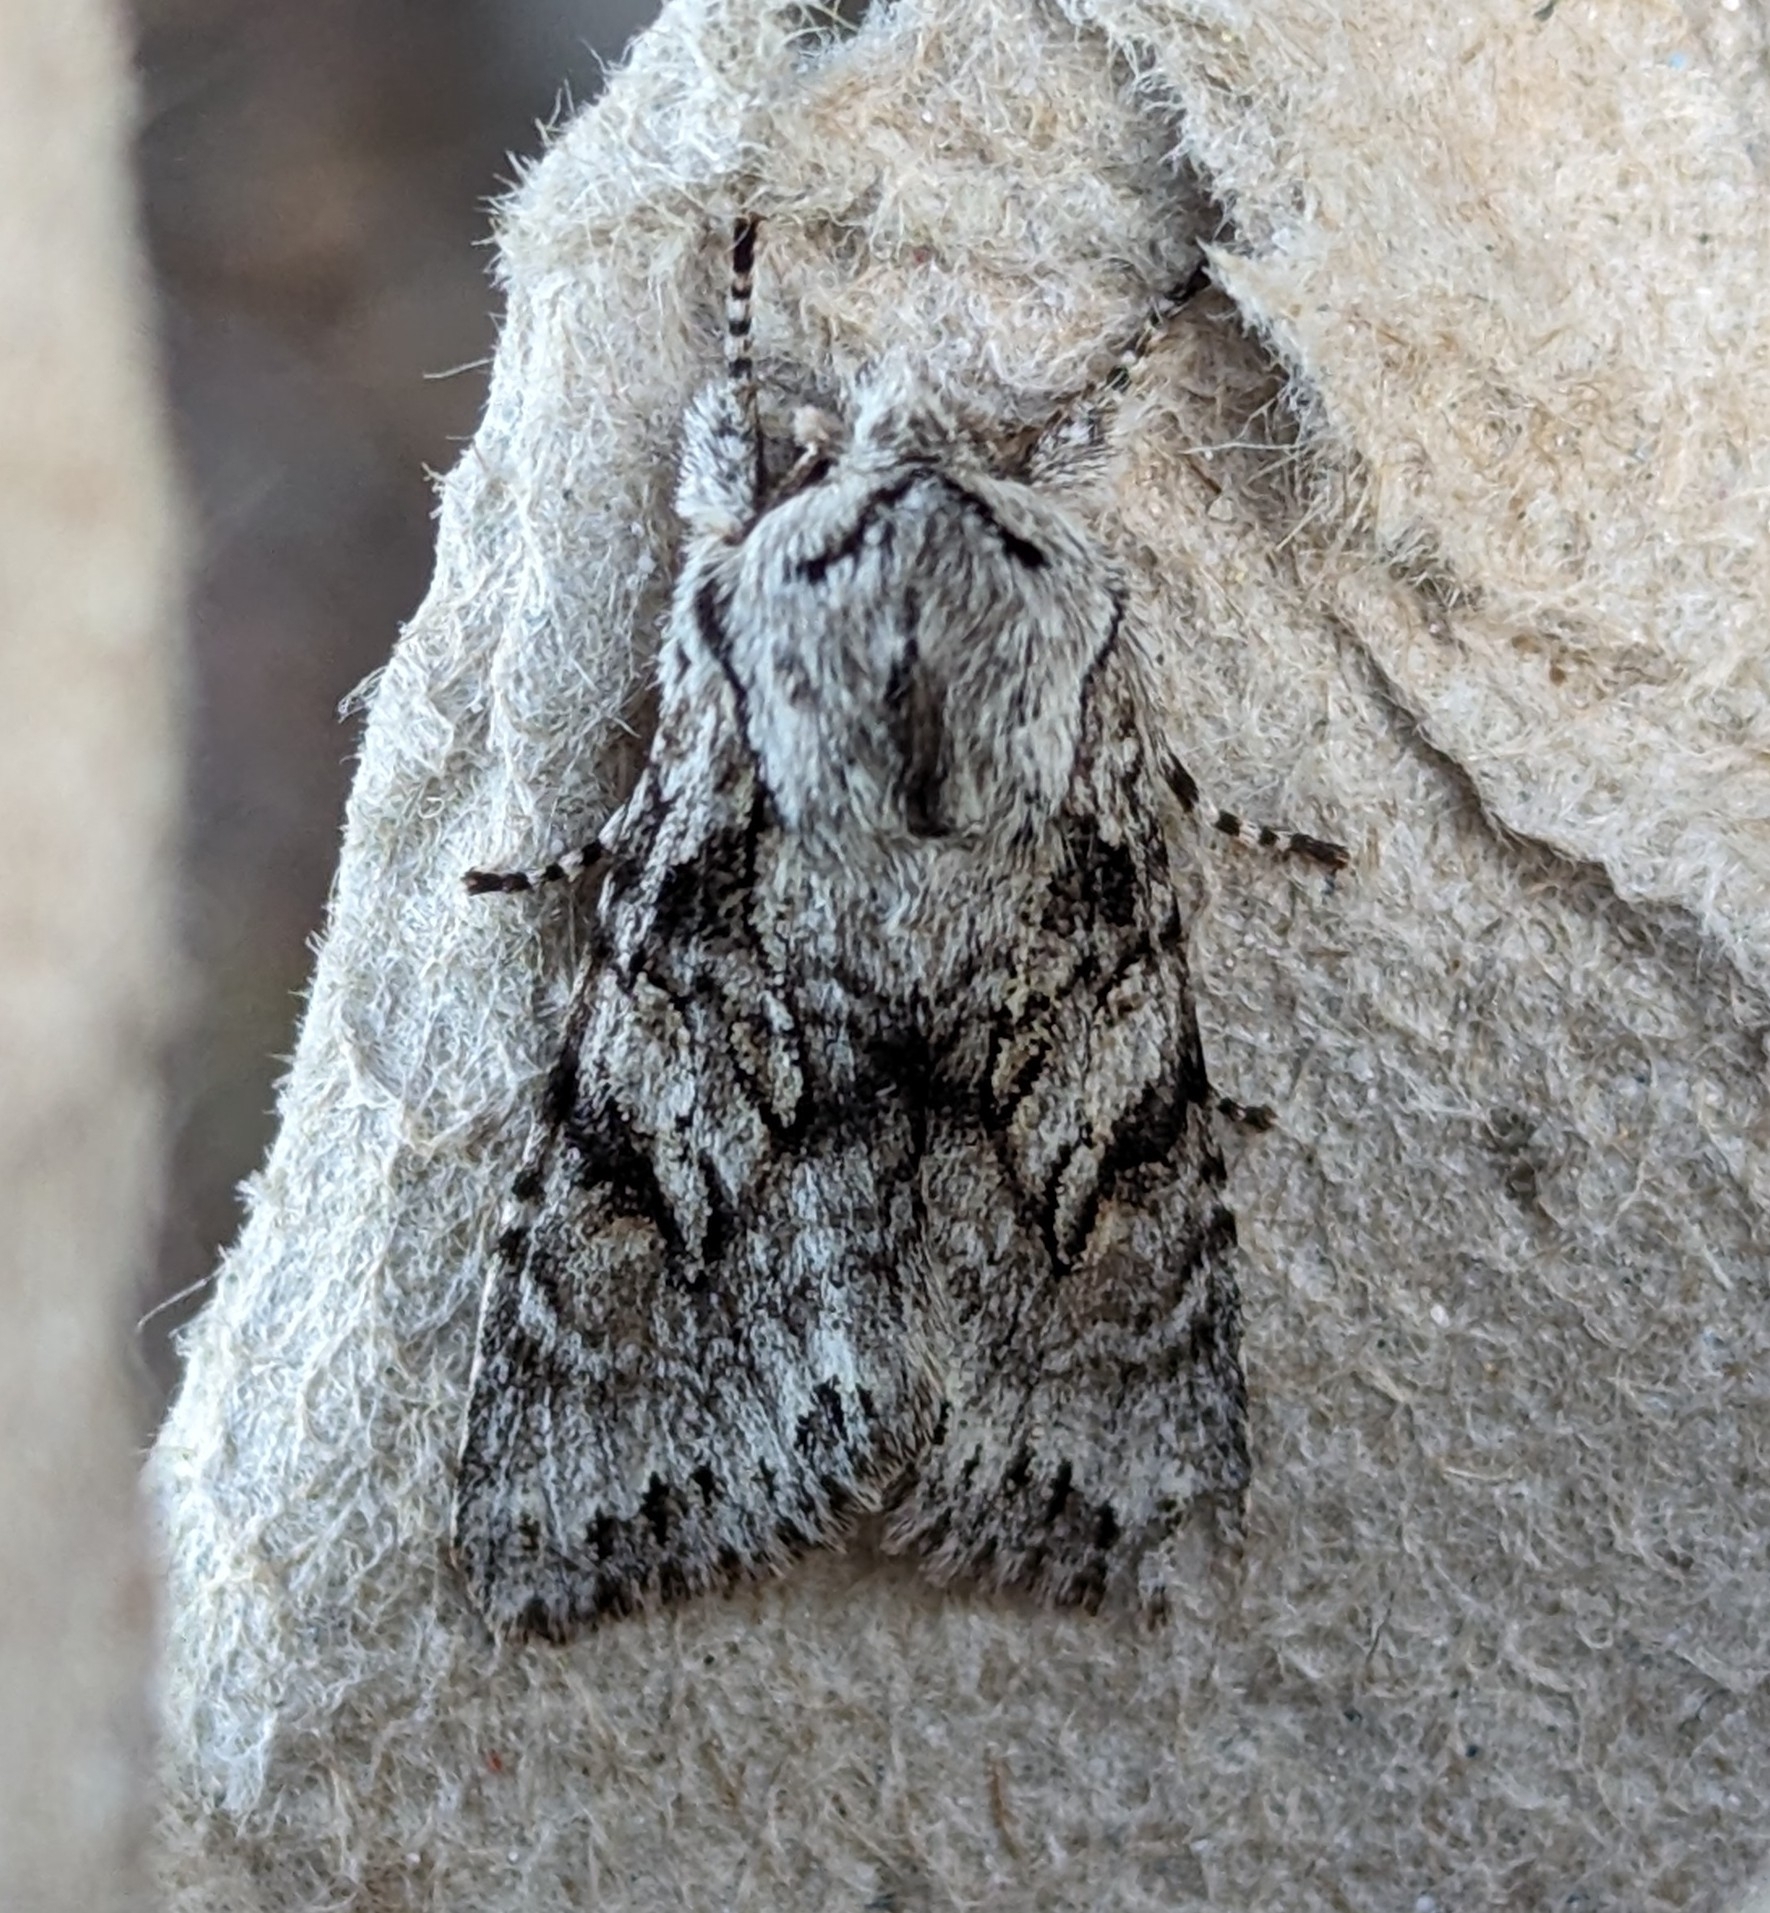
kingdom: Animalia
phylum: Arthropoda
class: Insecta
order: Lepidoptera
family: Noctuidae
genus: Egira
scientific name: Egira simplex
